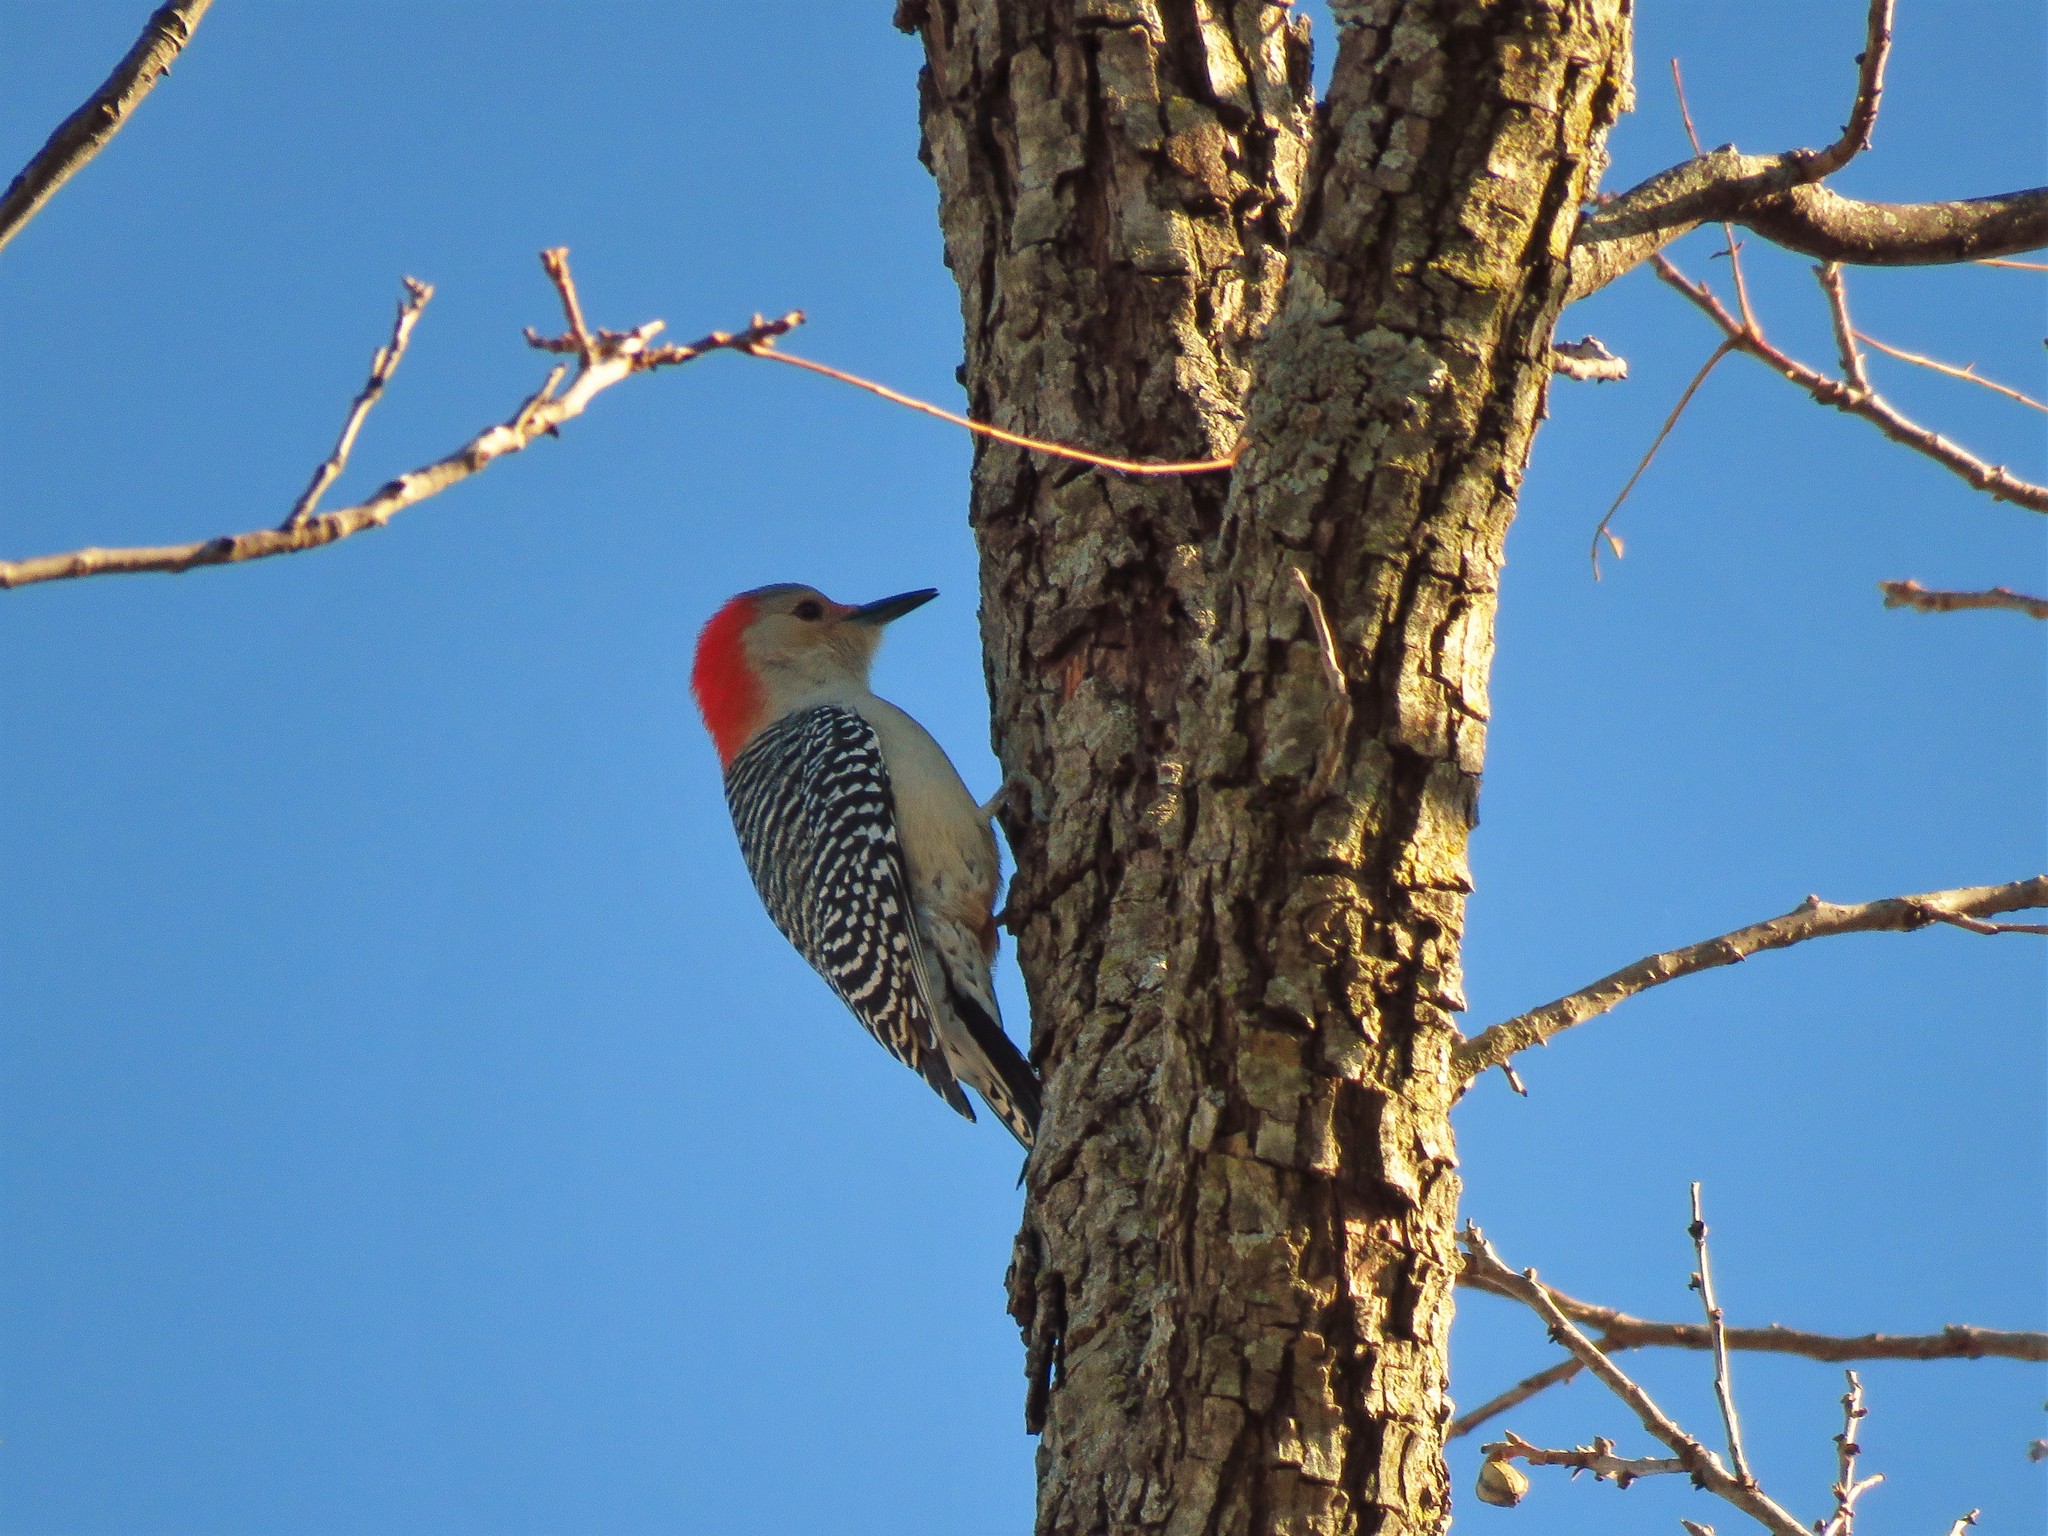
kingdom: Animalia
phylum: Chordata
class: Aves
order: Piciformes
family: Picidae
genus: Melanerpes
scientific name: Melanerpes carolinus
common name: Red-bellied woodpecker
